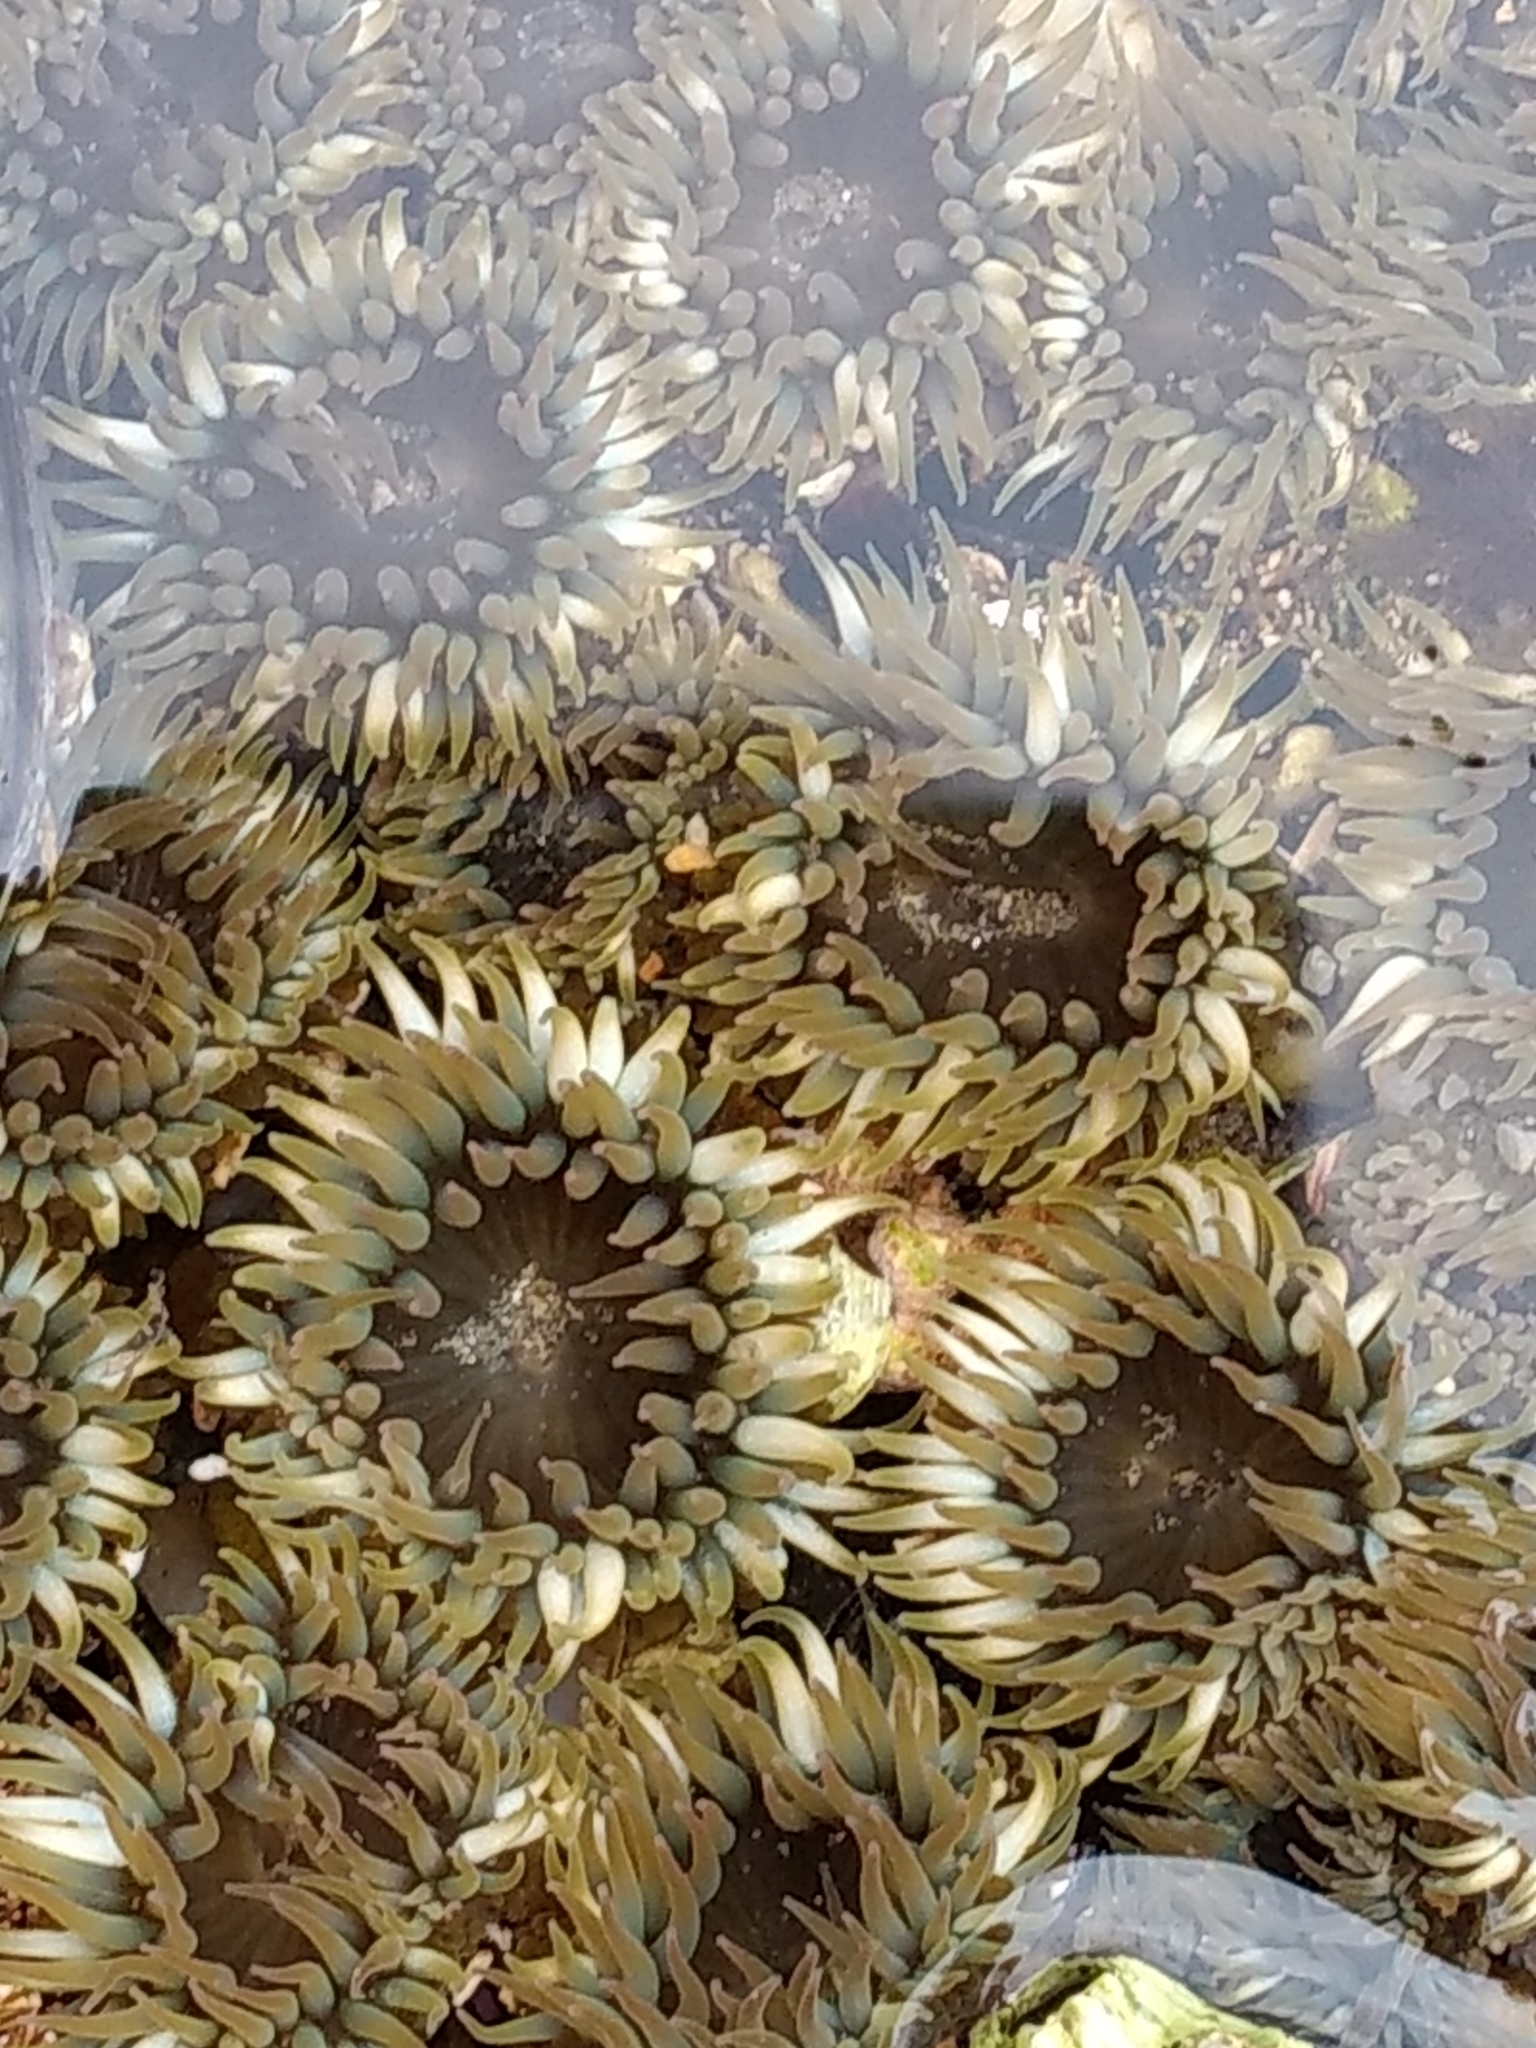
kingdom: Animalia
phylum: Cnidaria
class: Anthozoa
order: Actiniaria
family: Actiniidae
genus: Anthopleura
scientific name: Anthopleura elegantissima
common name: Clonal anemone
